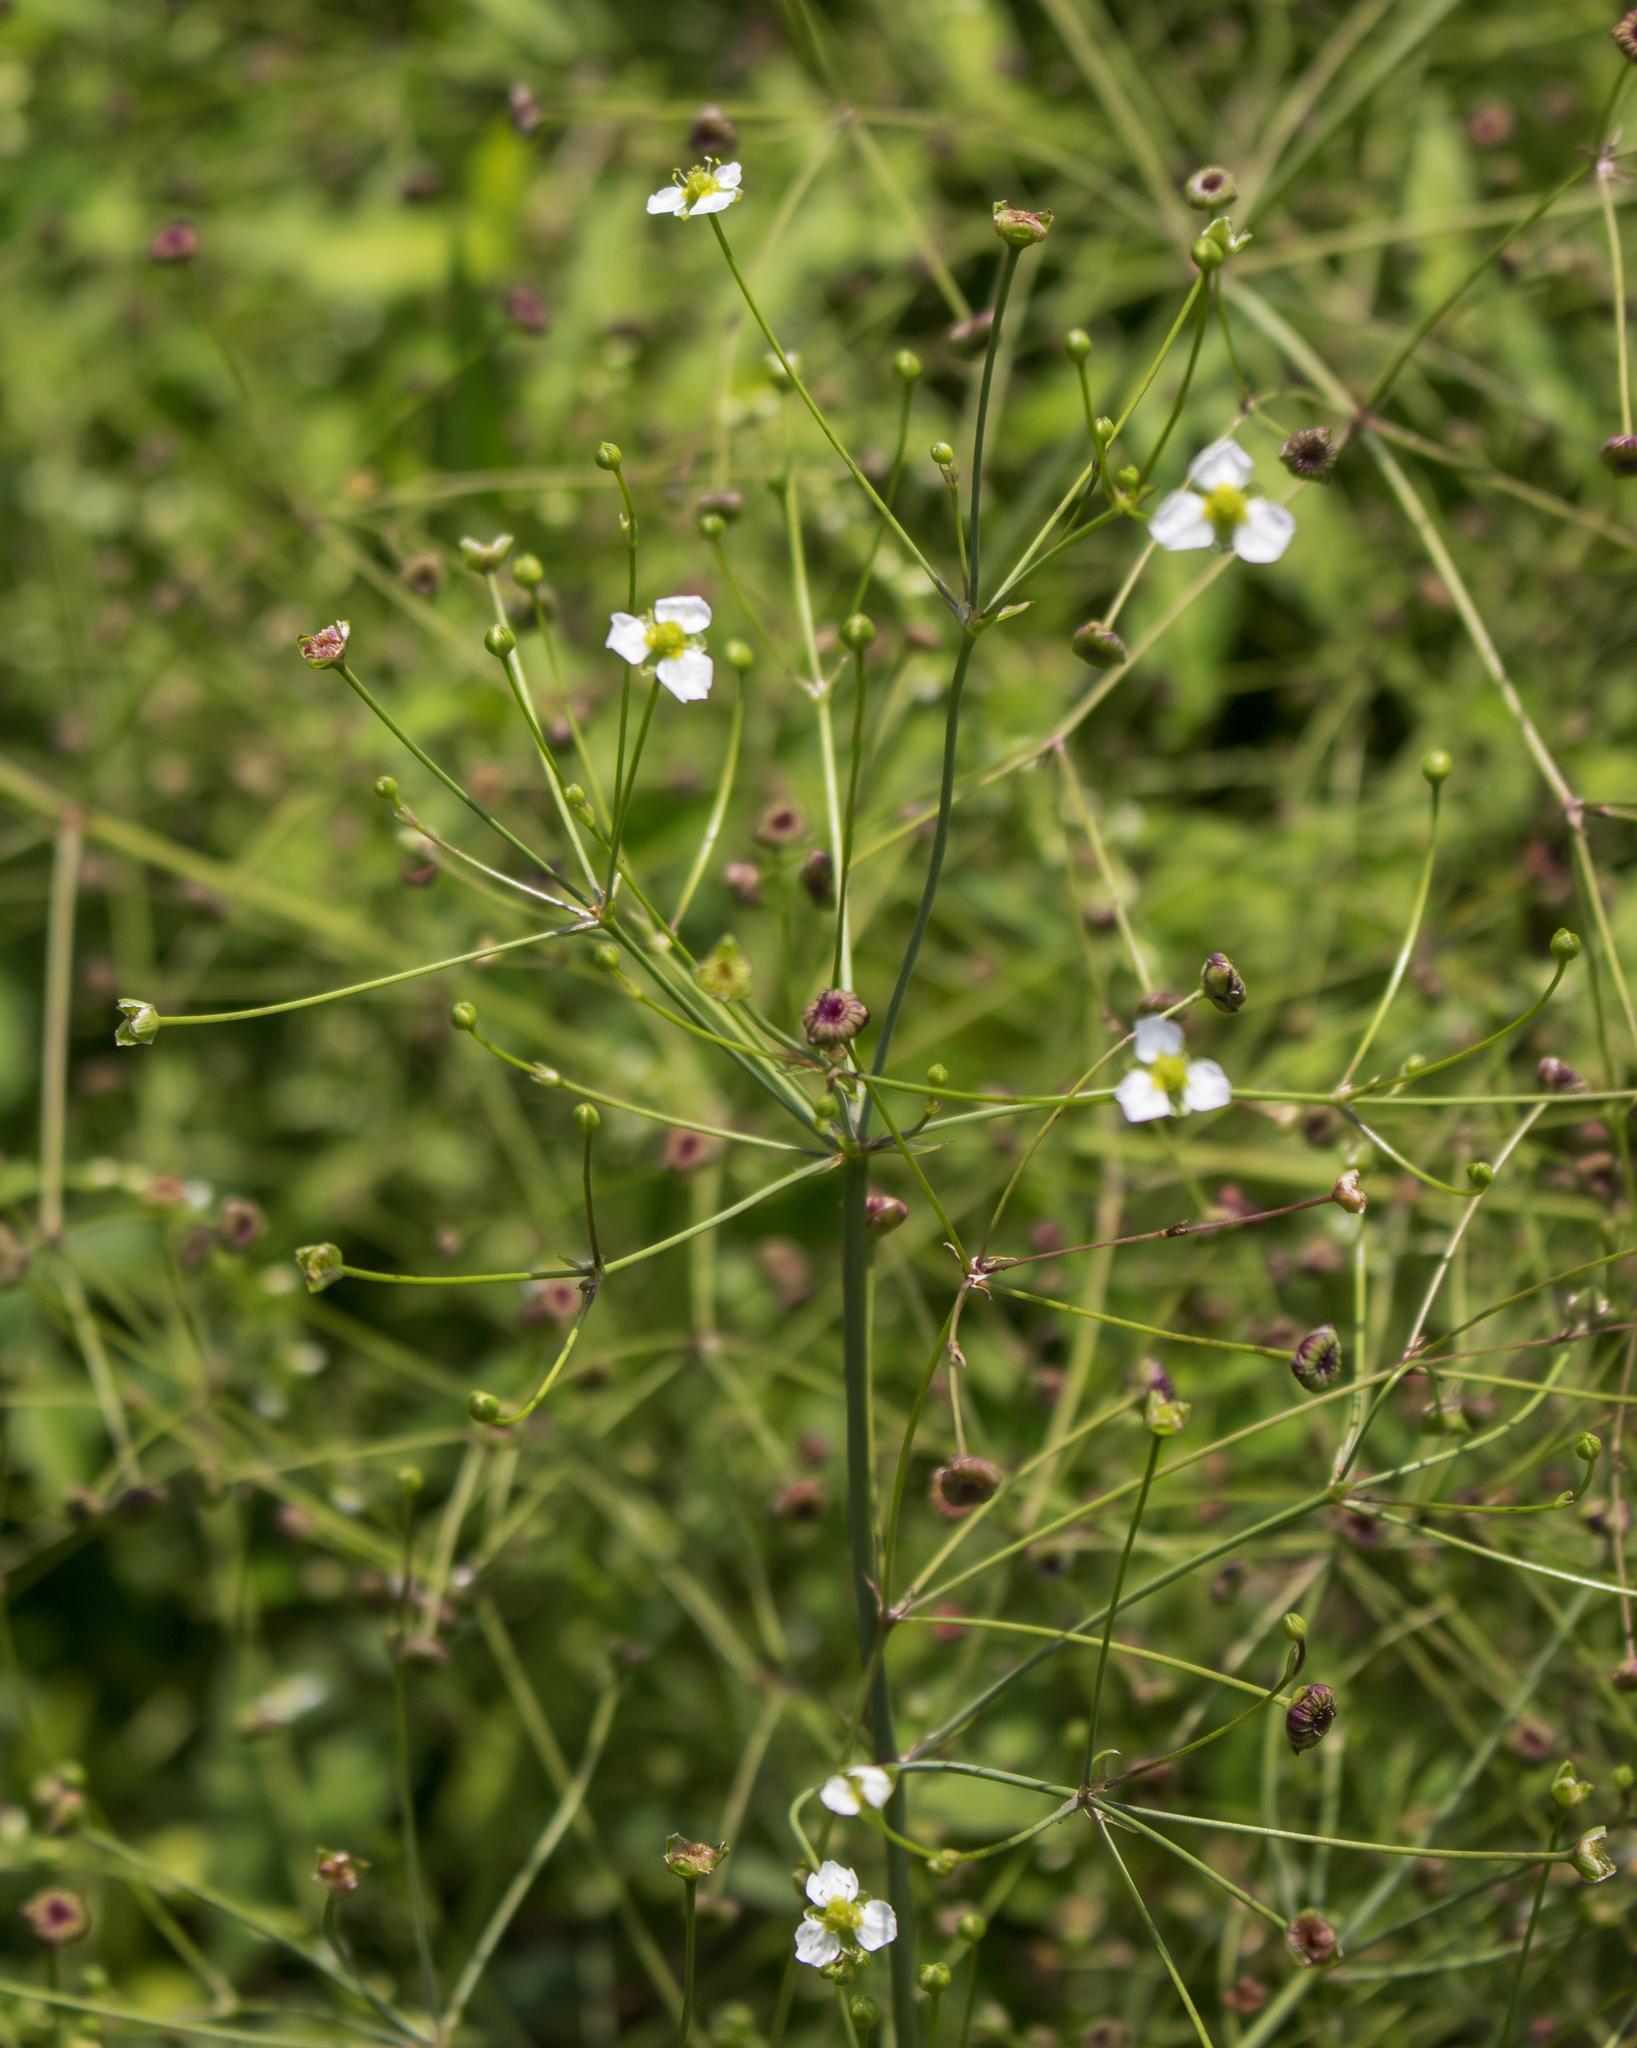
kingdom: Plantae
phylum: Tracheophyta
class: Liliopsida
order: Alismatales
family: Alismataceae
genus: Alisma
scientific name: Alisma triviale
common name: Northern water-plantain
